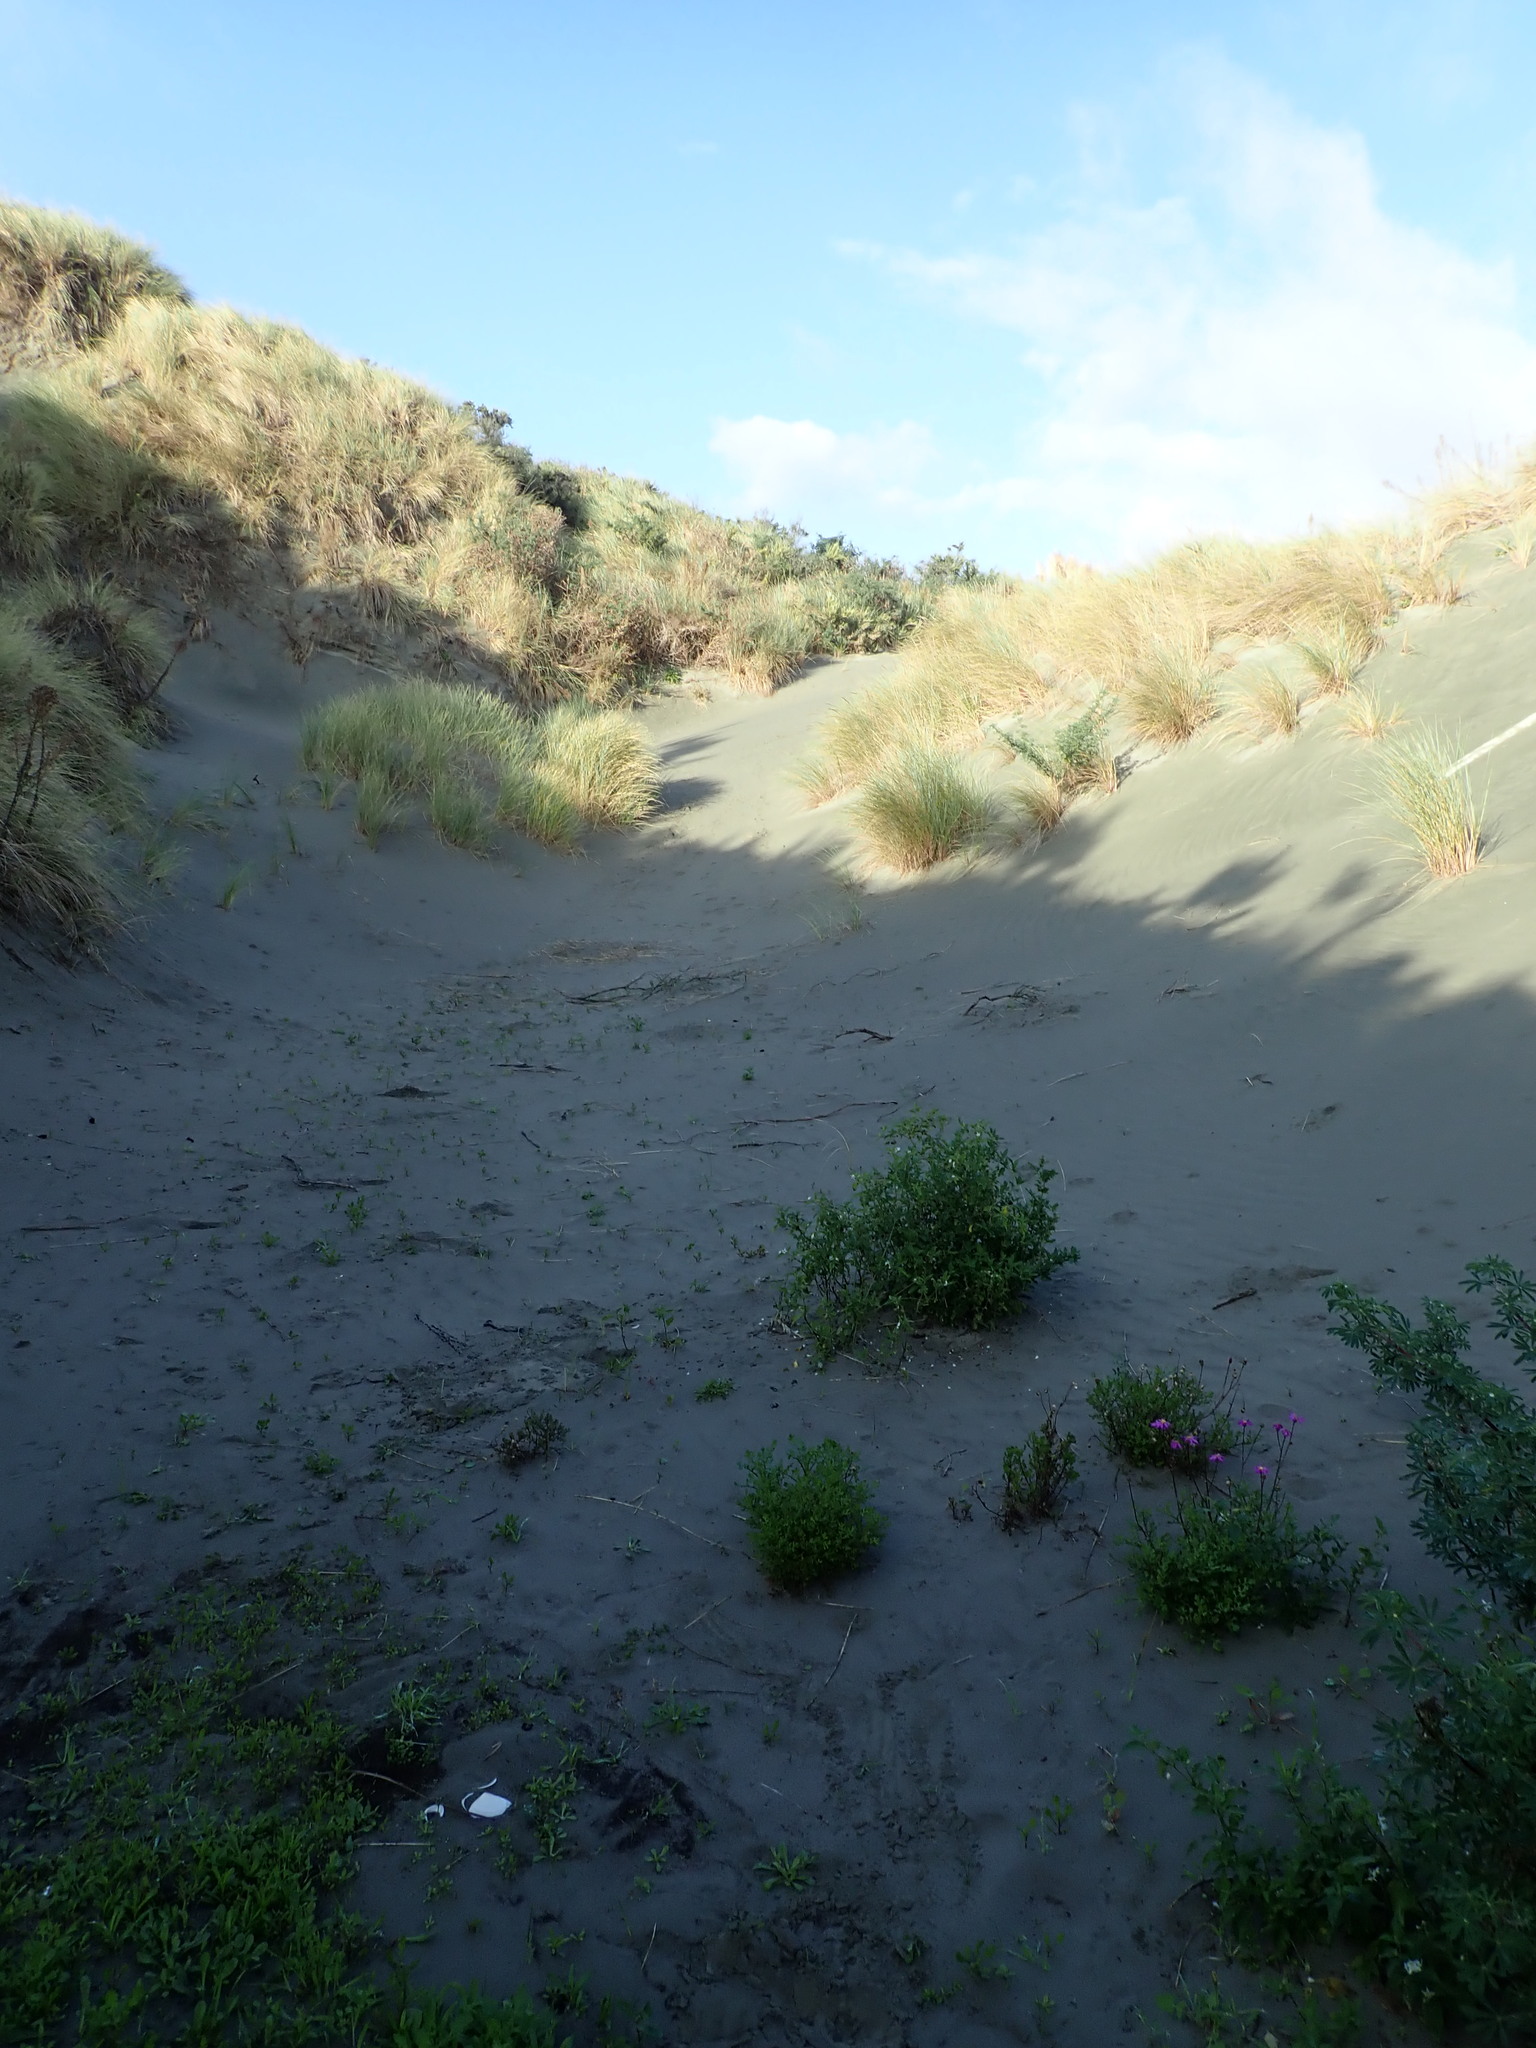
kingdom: Plantae
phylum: Tracheophyta
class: Magnoliopsida
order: Solanales
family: Solanaceae
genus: Solanum
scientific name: Solanum chenopodioides
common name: Tall nightshade
